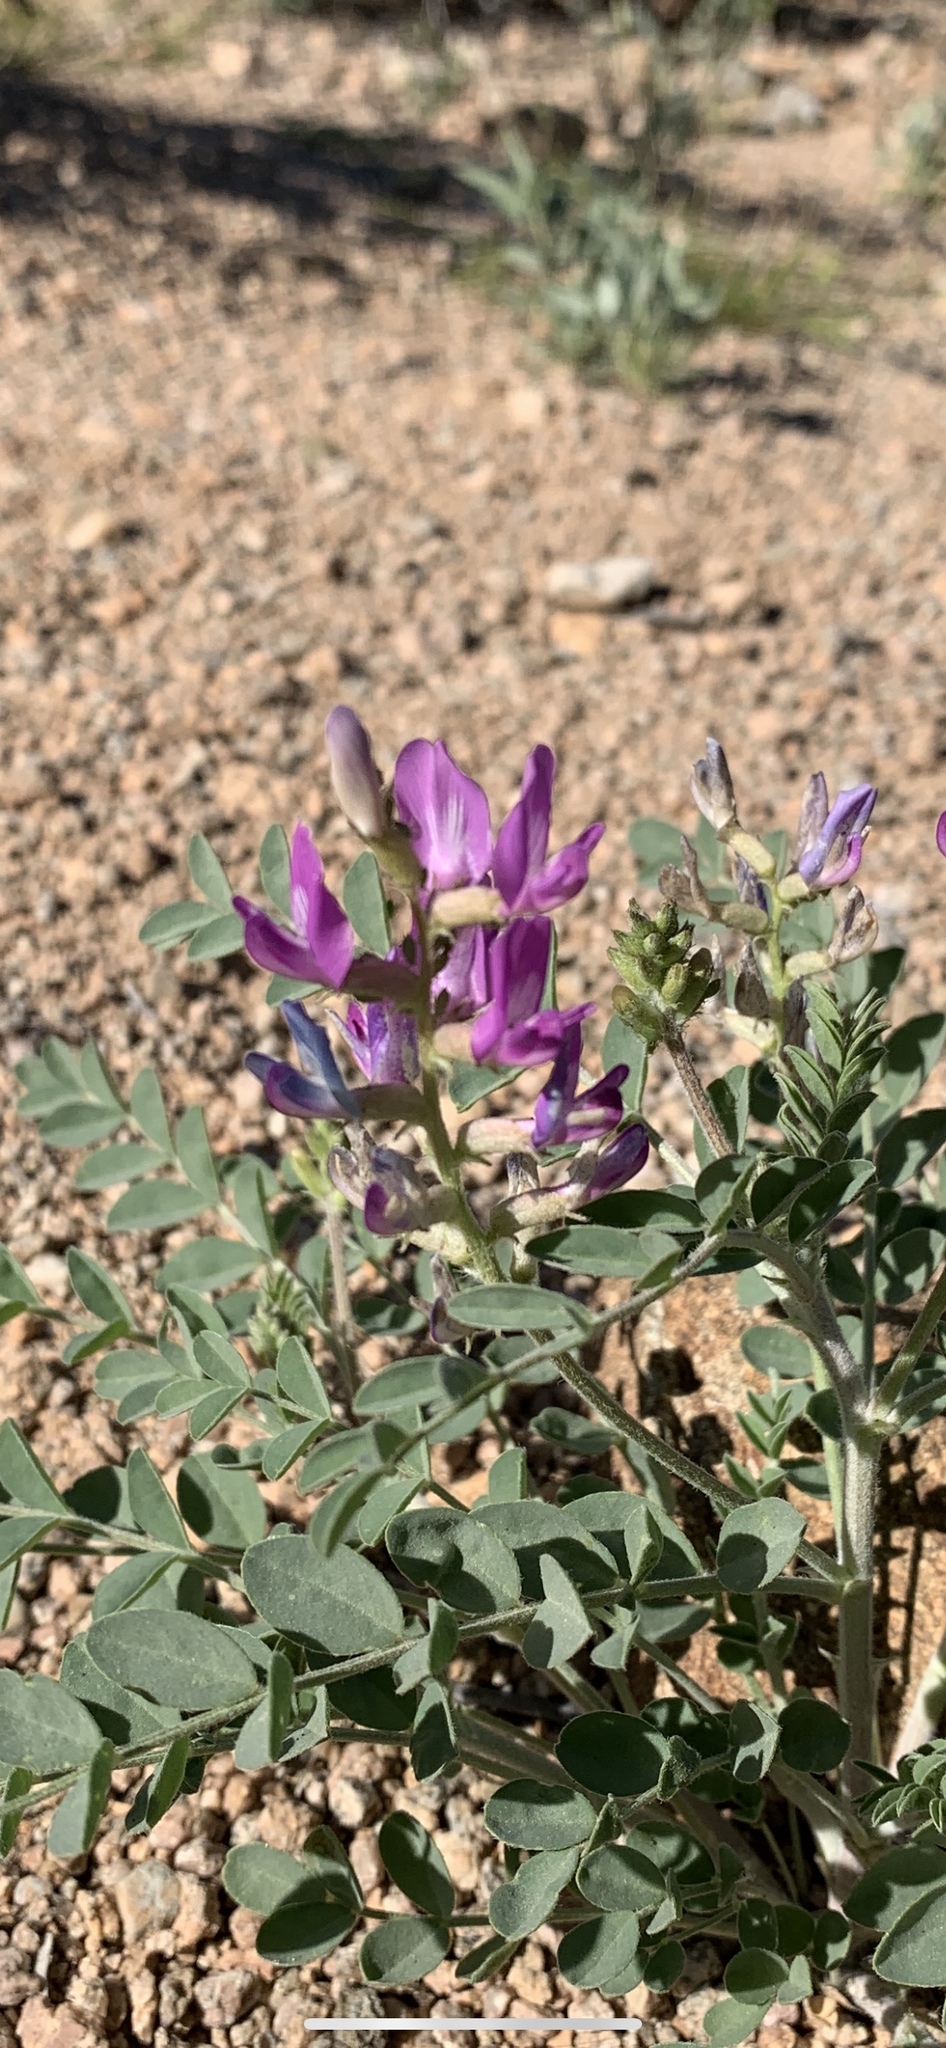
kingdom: Plantae
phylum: Tracheophyta
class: Magnoliopsida
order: Fabales
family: Fabaceae
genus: Astragalus
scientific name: Astragalus lentiginosus
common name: Freckled milkvetch
